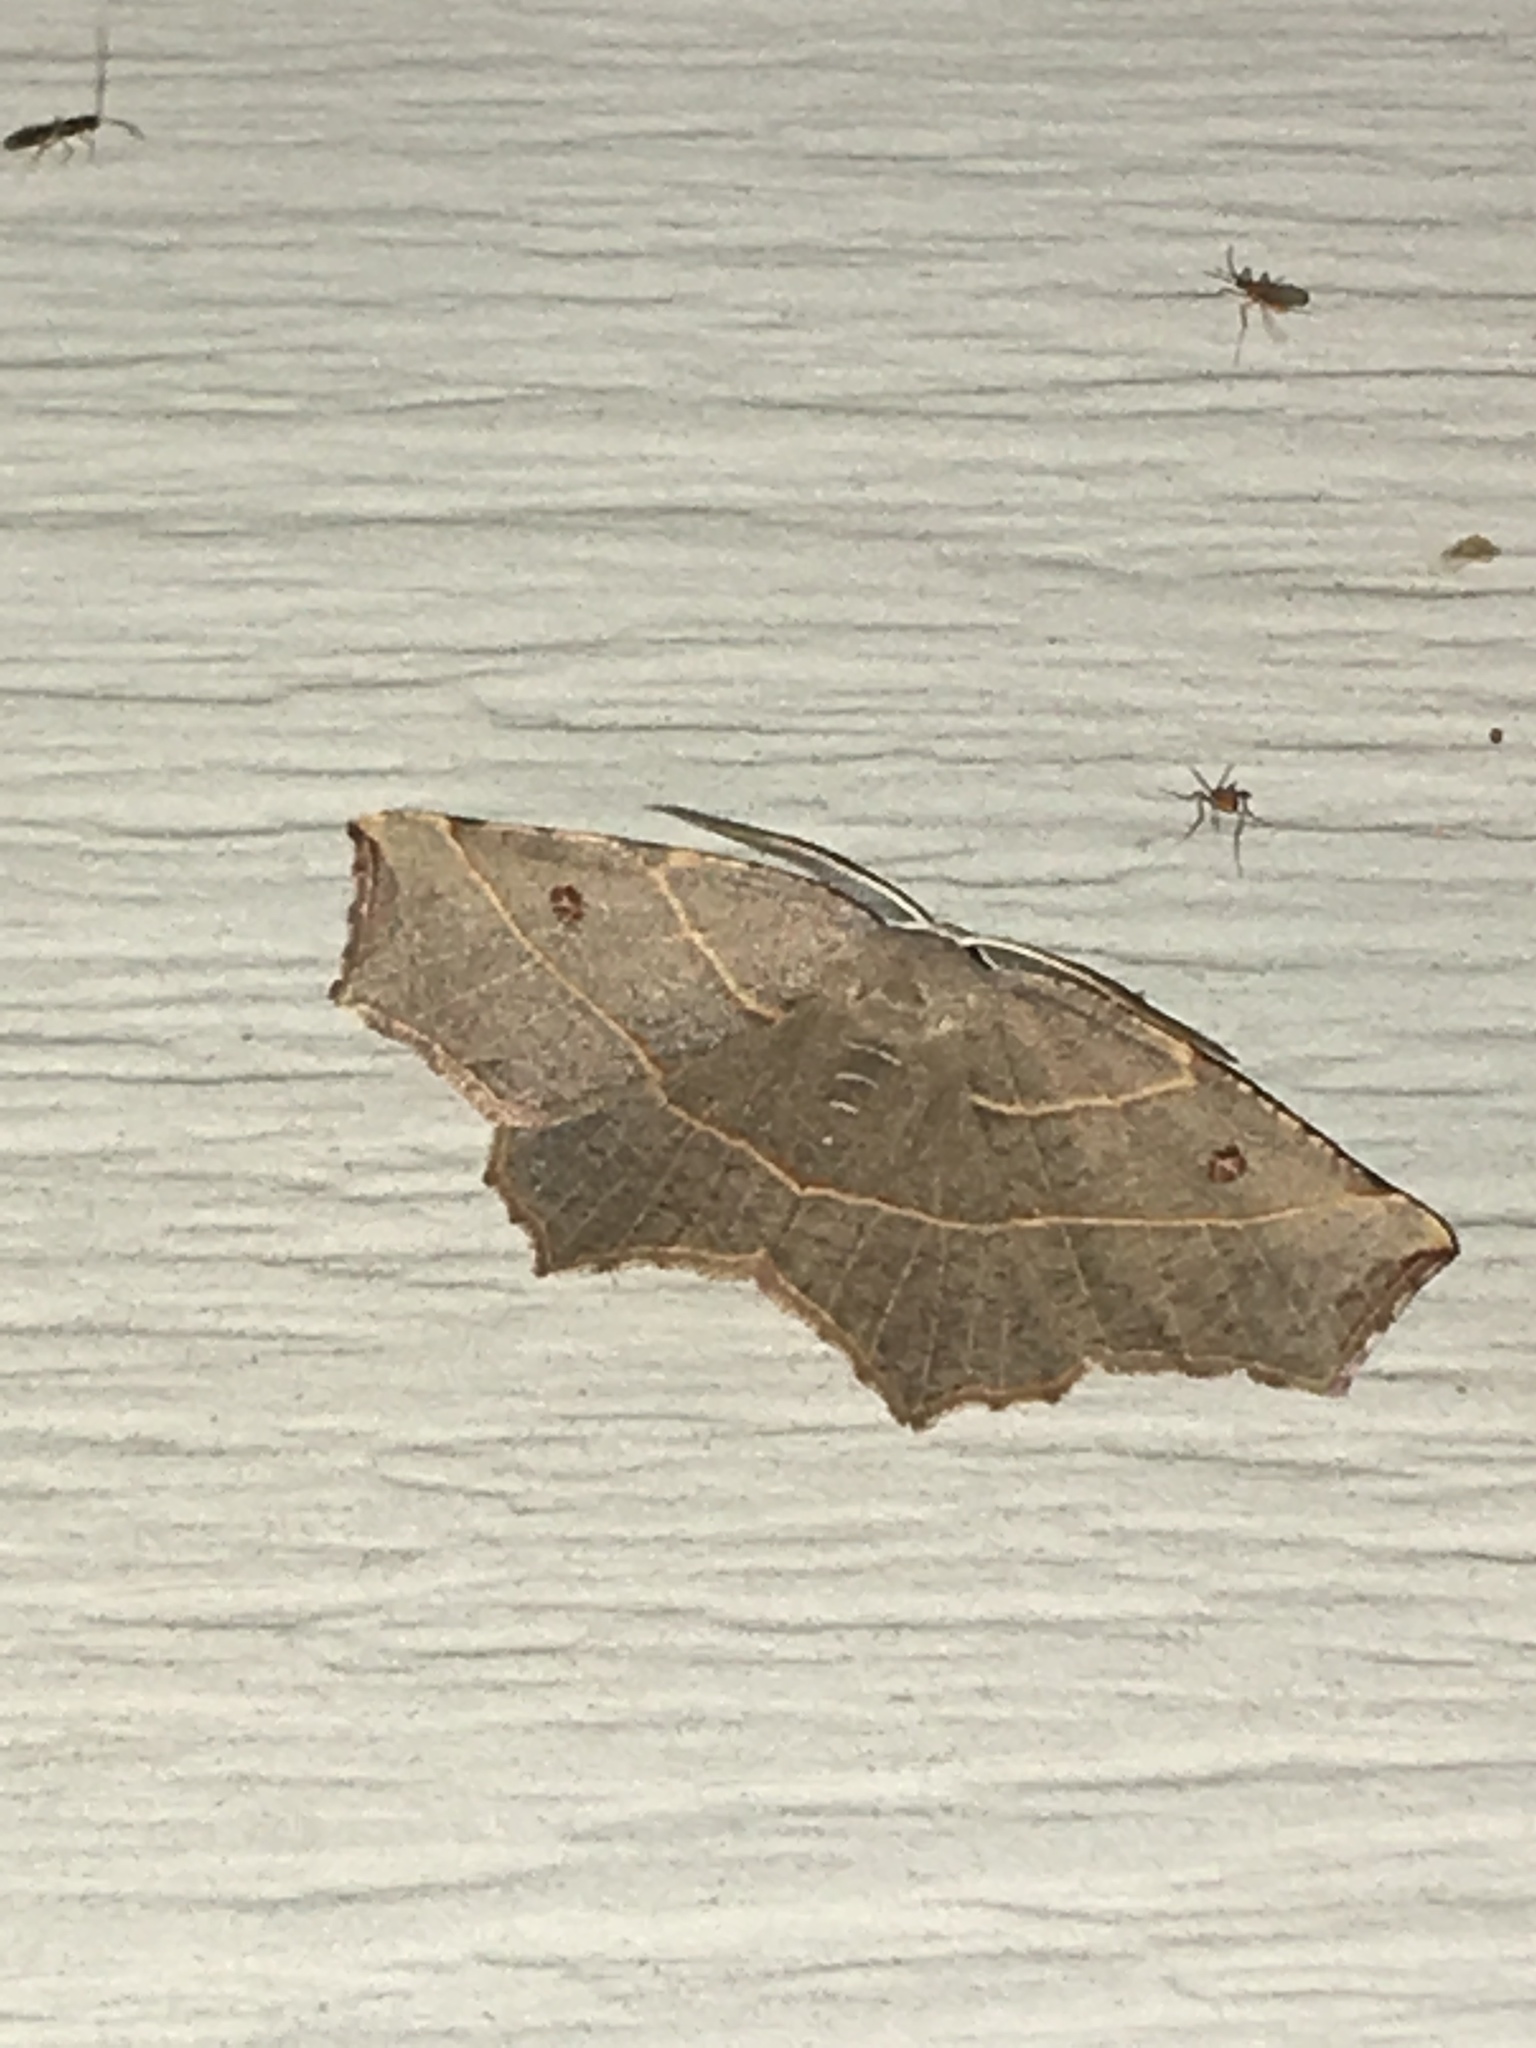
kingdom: Animalia
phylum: Arthropoda
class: Insecta
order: Lepidoptera
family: Geometridae
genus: Metanema
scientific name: Metanema inatomaria
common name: Pale metanema
